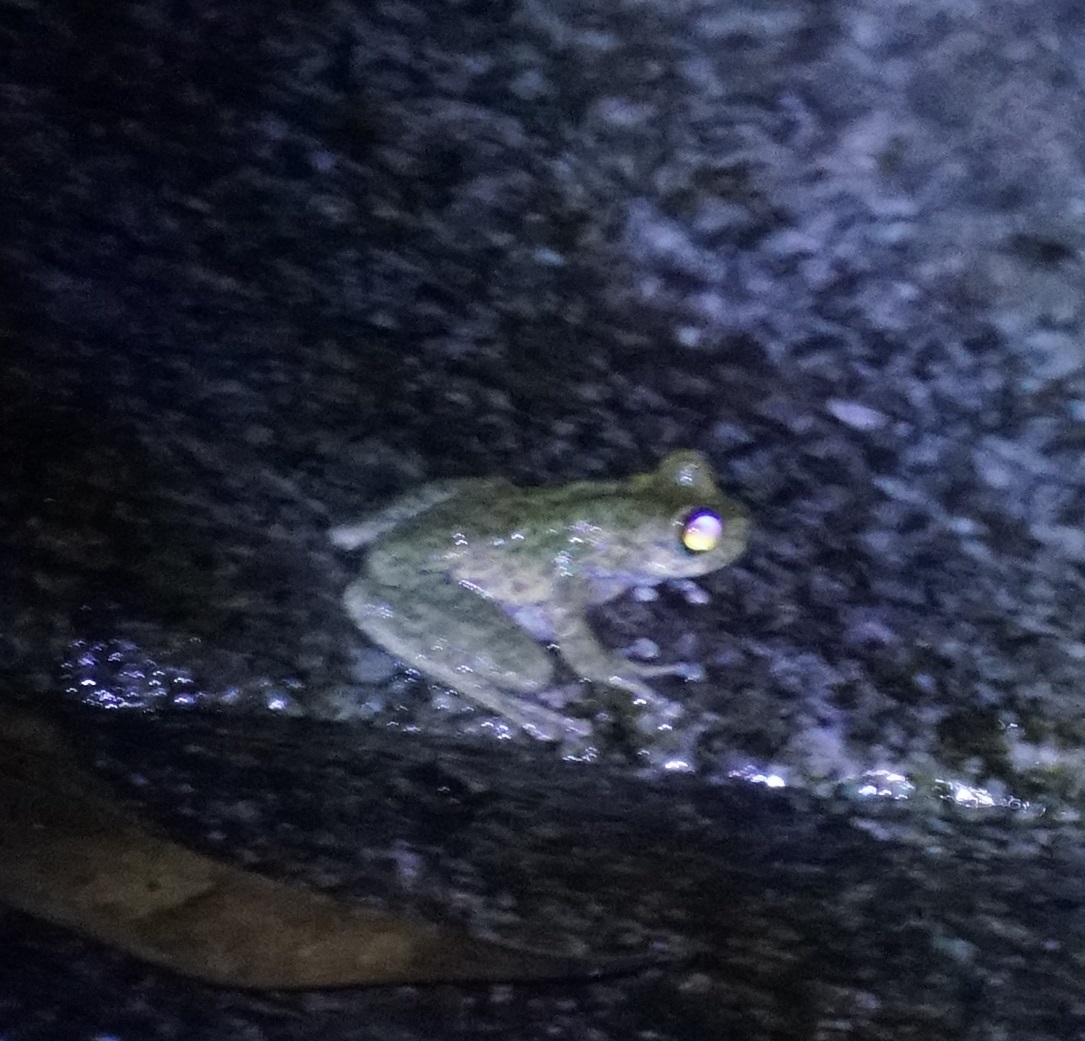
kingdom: Animalia
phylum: Chordata
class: Amphibia
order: Anura
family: Pelodryadidae
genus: Ranoidea
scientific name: Ranoidea nannotis
